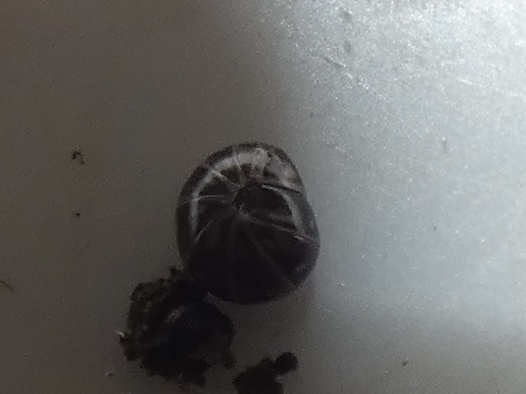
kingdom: Animalia
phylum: Arthropoda
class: Diplopoda
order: Glomerida
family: Glomeridae
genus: Glomeris
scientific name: Glomeris marginata
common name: Bordered pill millipede
